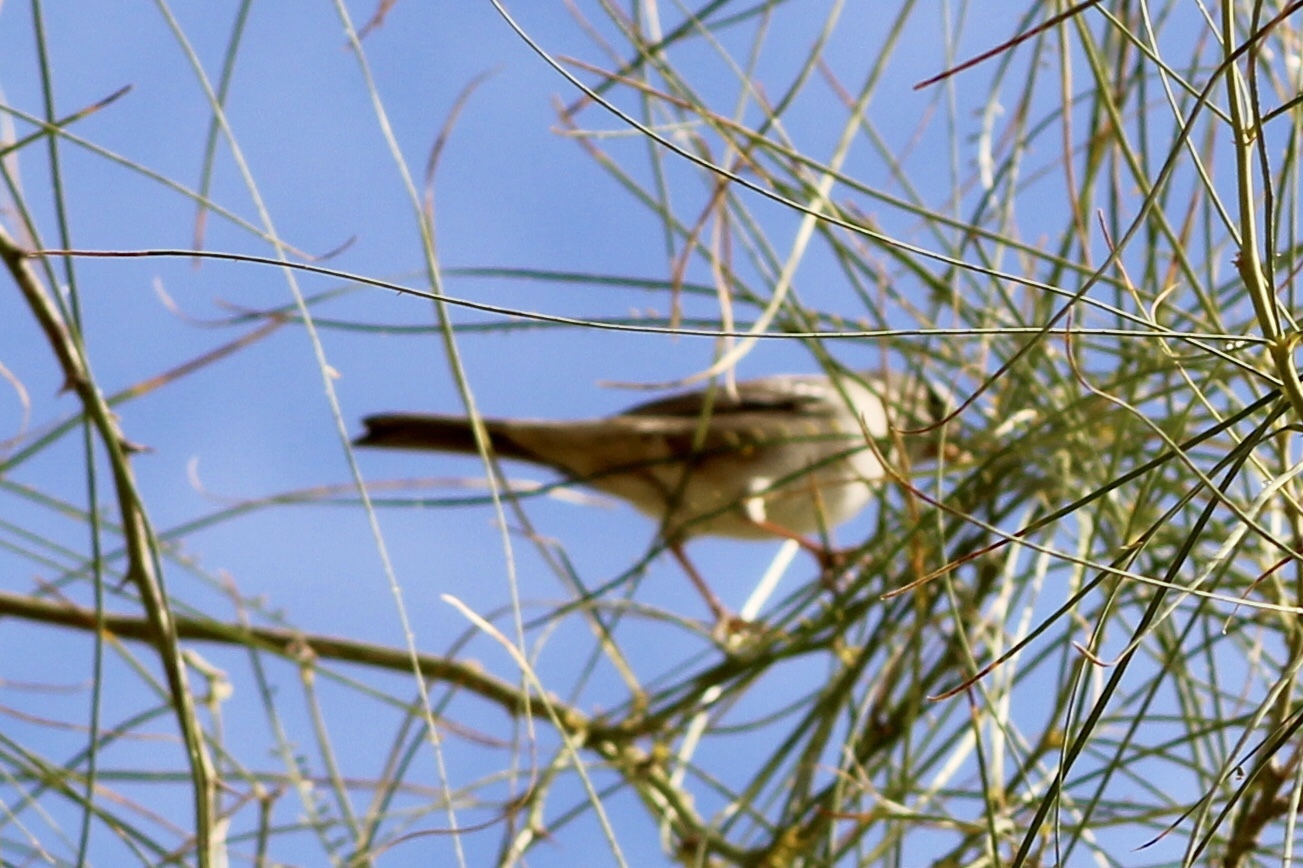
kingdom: Animalia
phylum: Chordata
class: Aves
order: Passeriformes
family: Passerellidae
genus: Zonotrichia
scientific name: Zonotrichia leucophrys
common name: White-crowned sparrow
